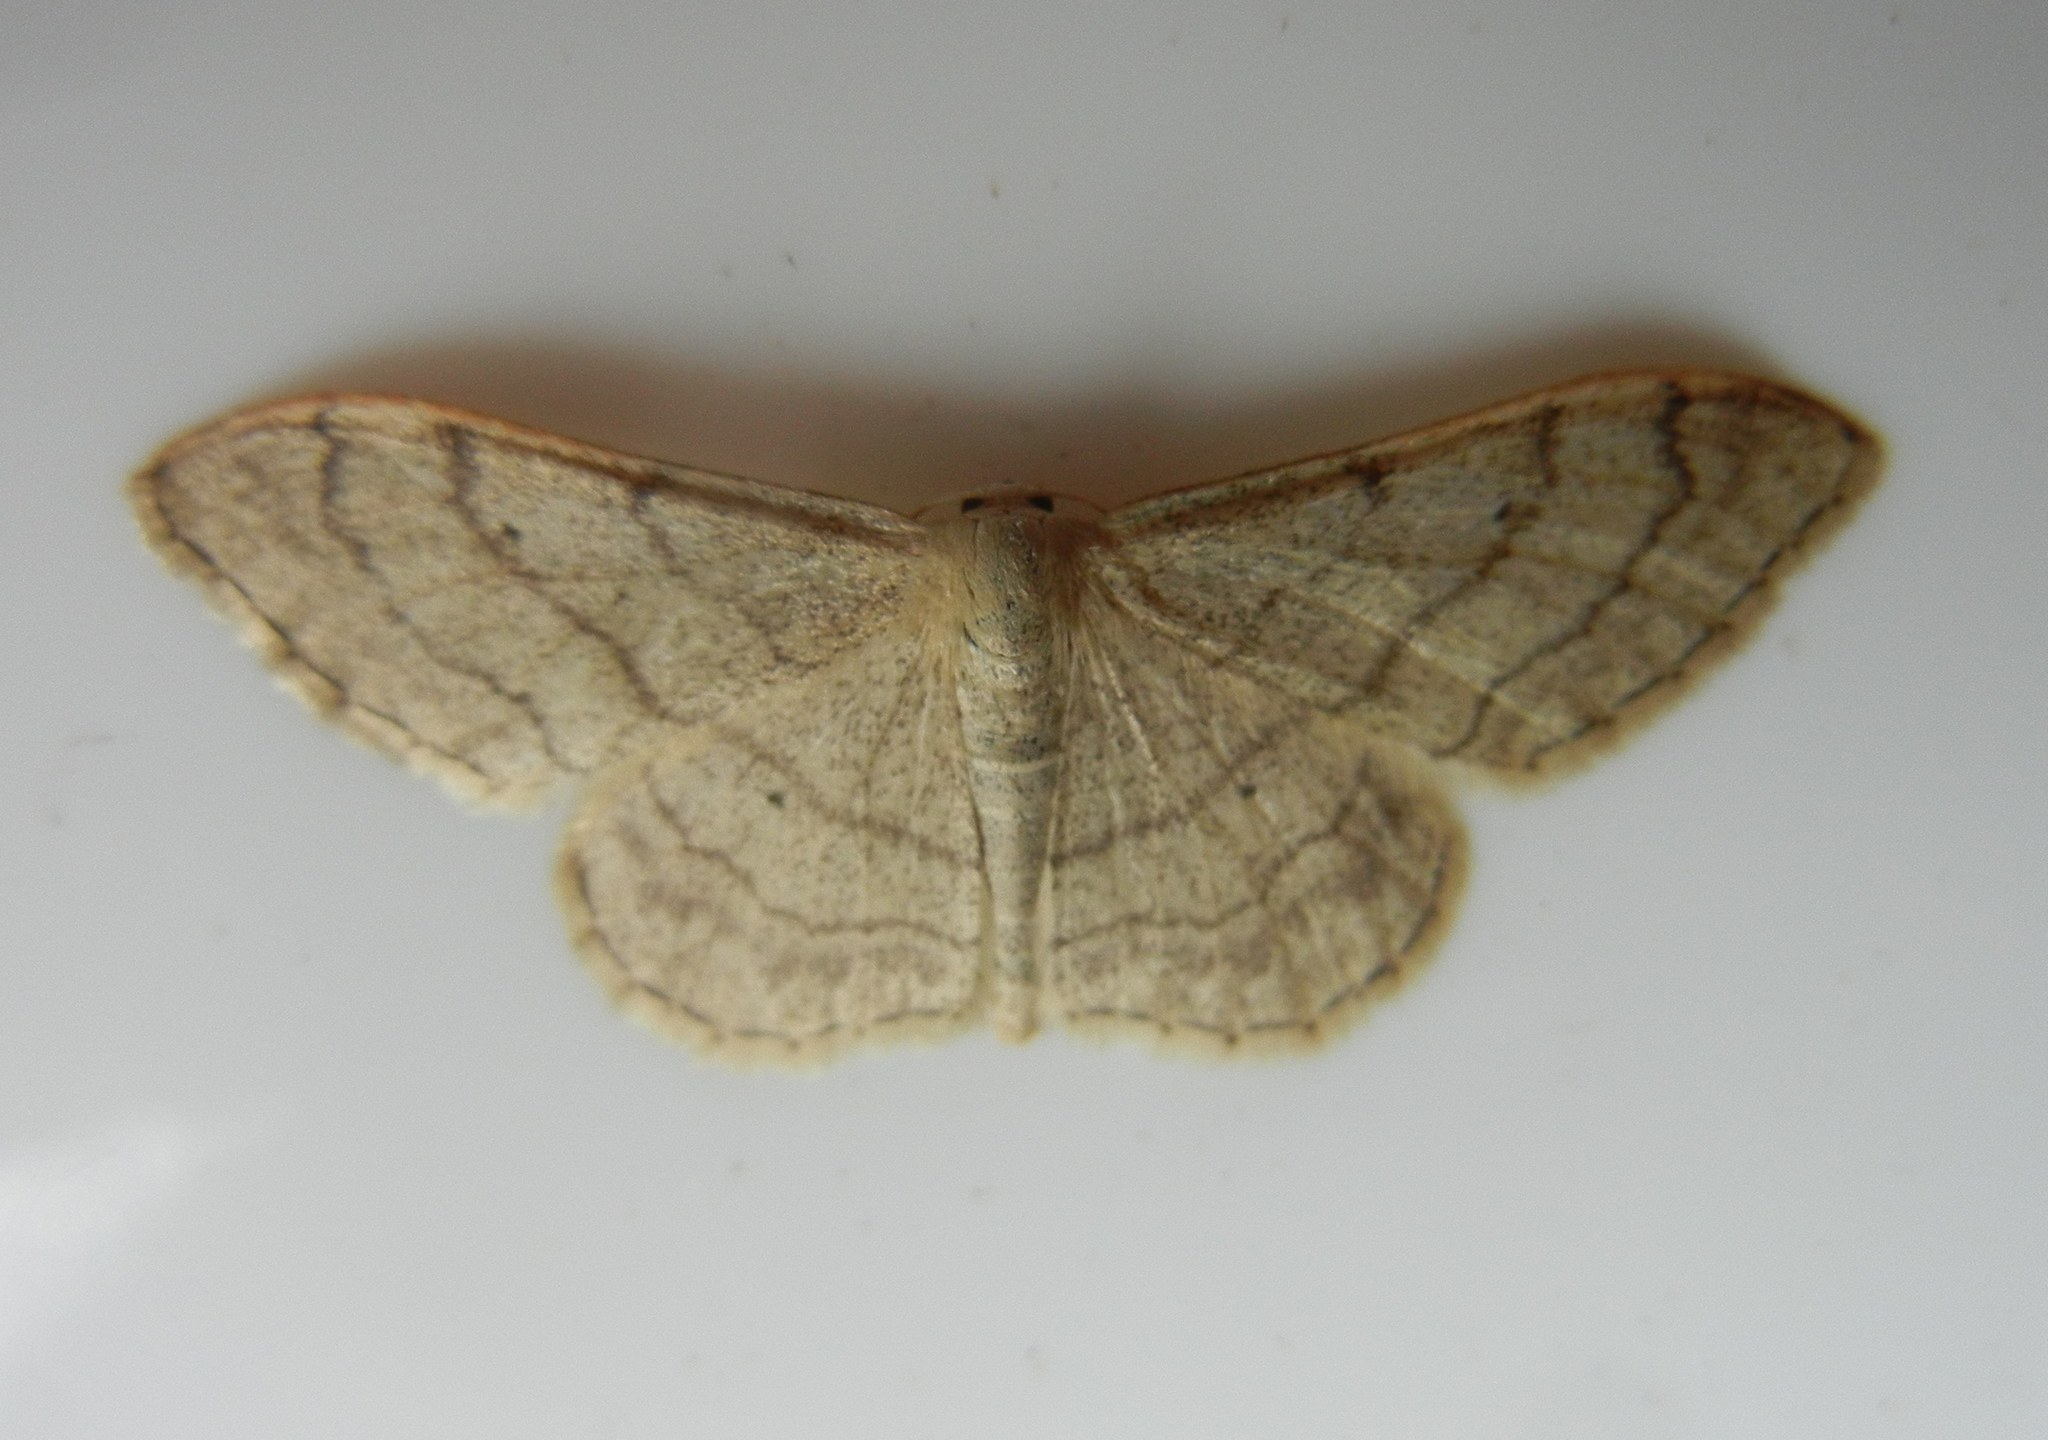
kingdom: Animalia
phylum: Arthropoda
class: Insecta
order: Lepidoptera
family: Geometridae
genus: Idaea
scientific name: Idaea aversata
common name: Riband wave
